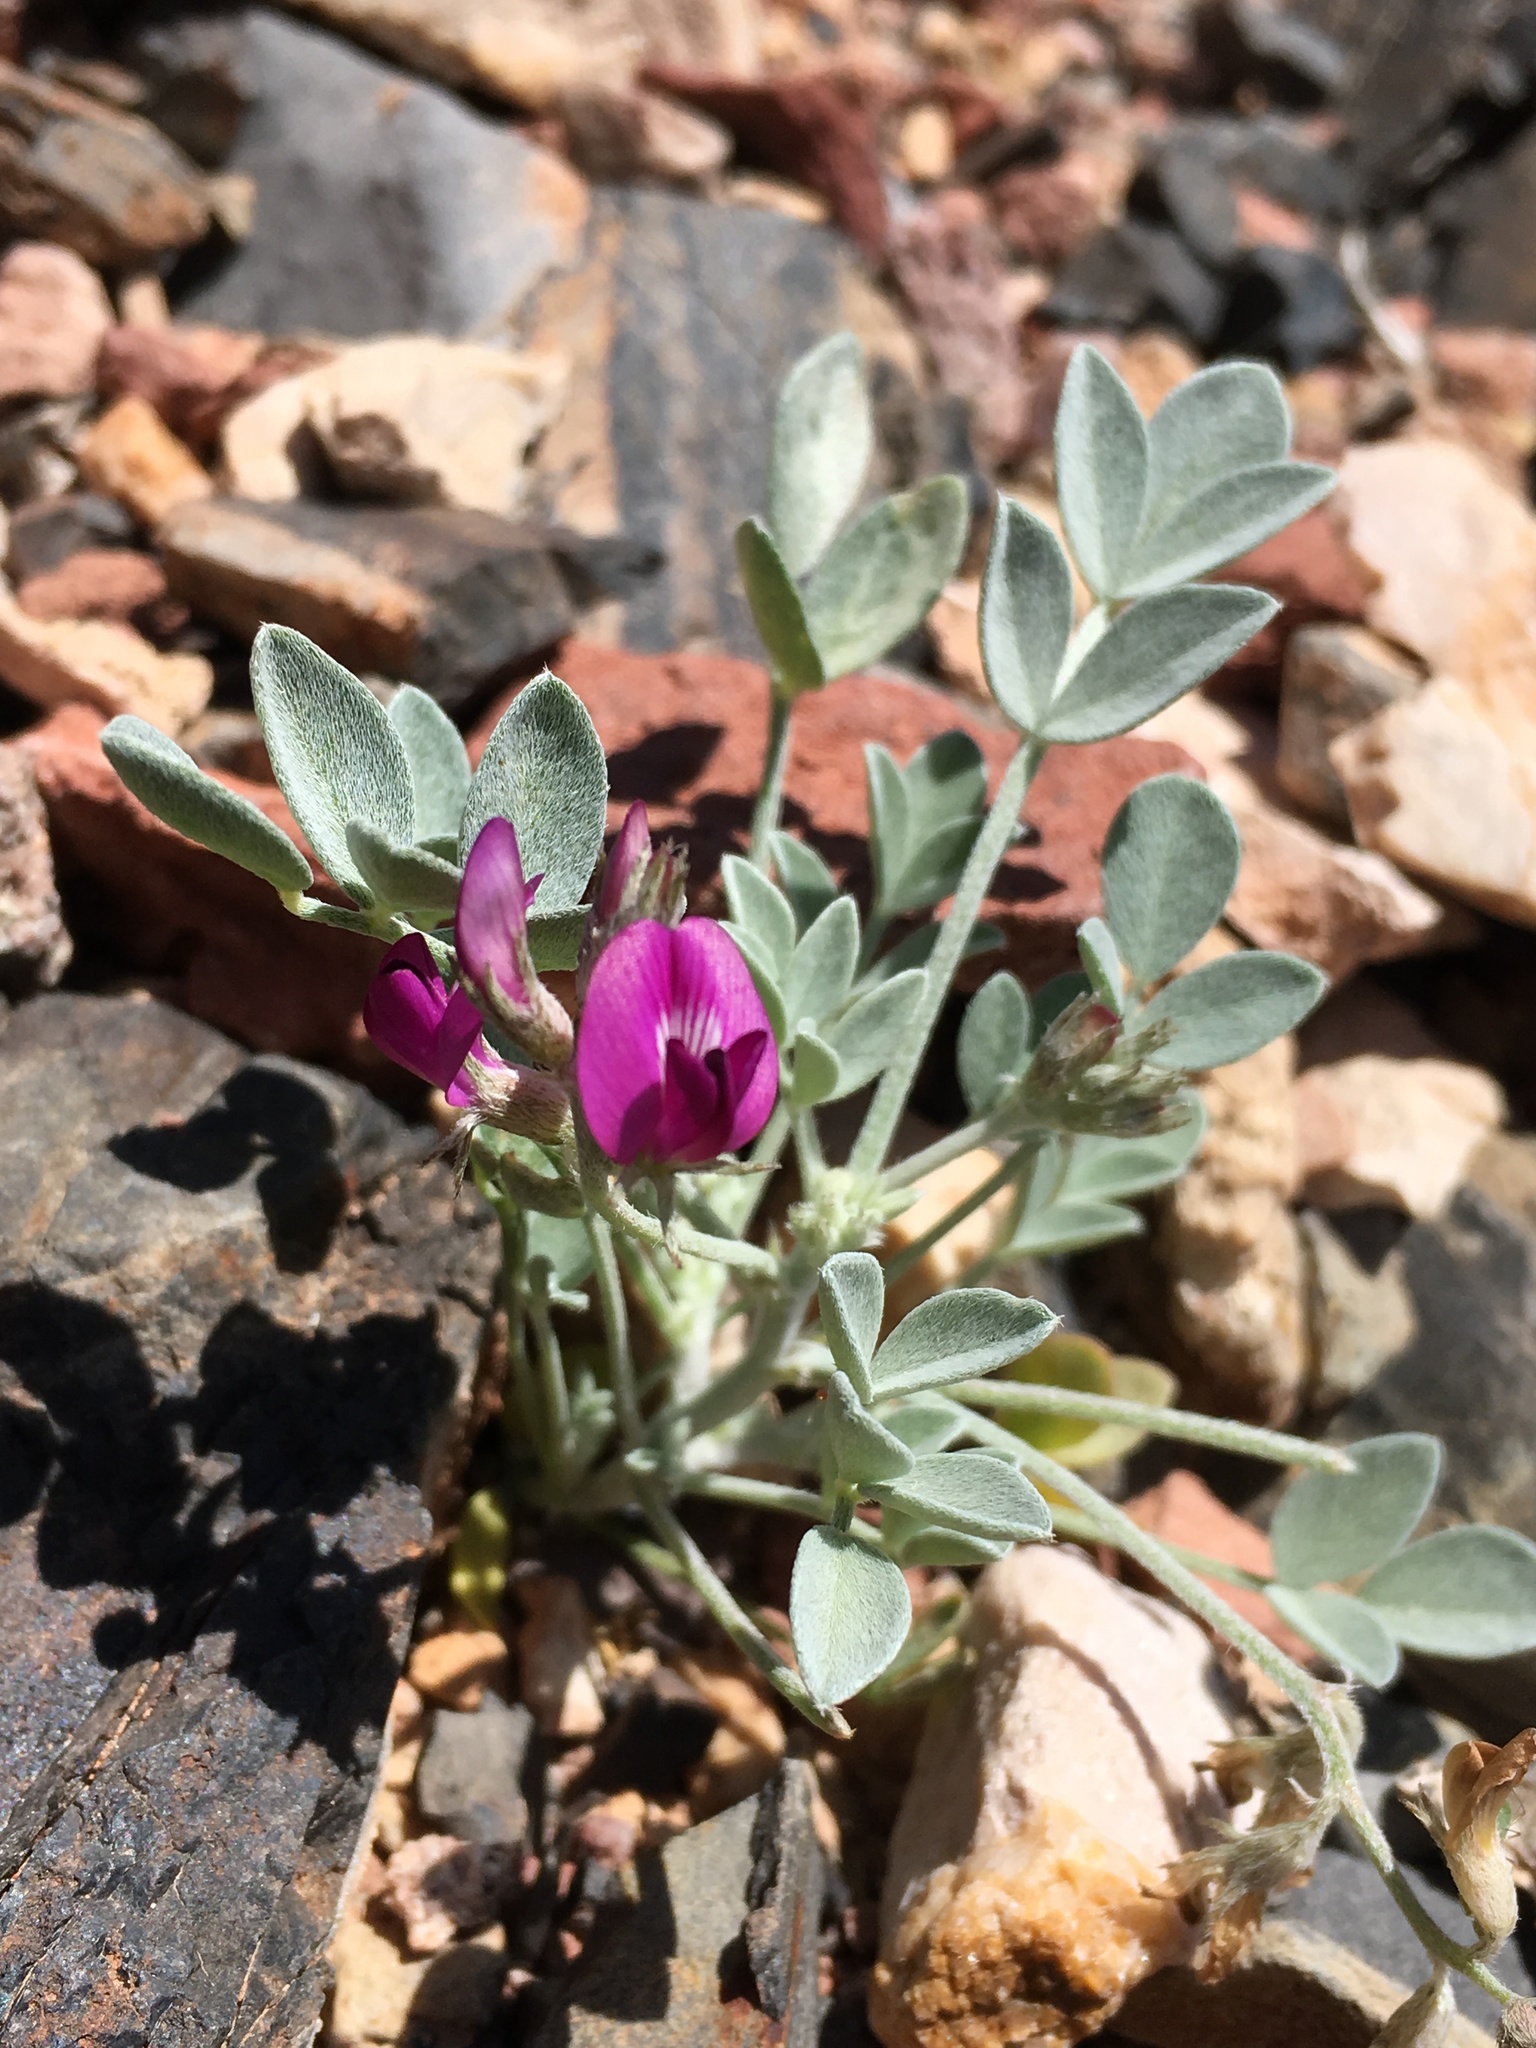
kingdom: Plantae
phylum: Tracheophyta
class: Magnoliopsida
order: Fabales
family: Fabaceae
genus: Astragalus
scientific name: Astragalus mohavensis
